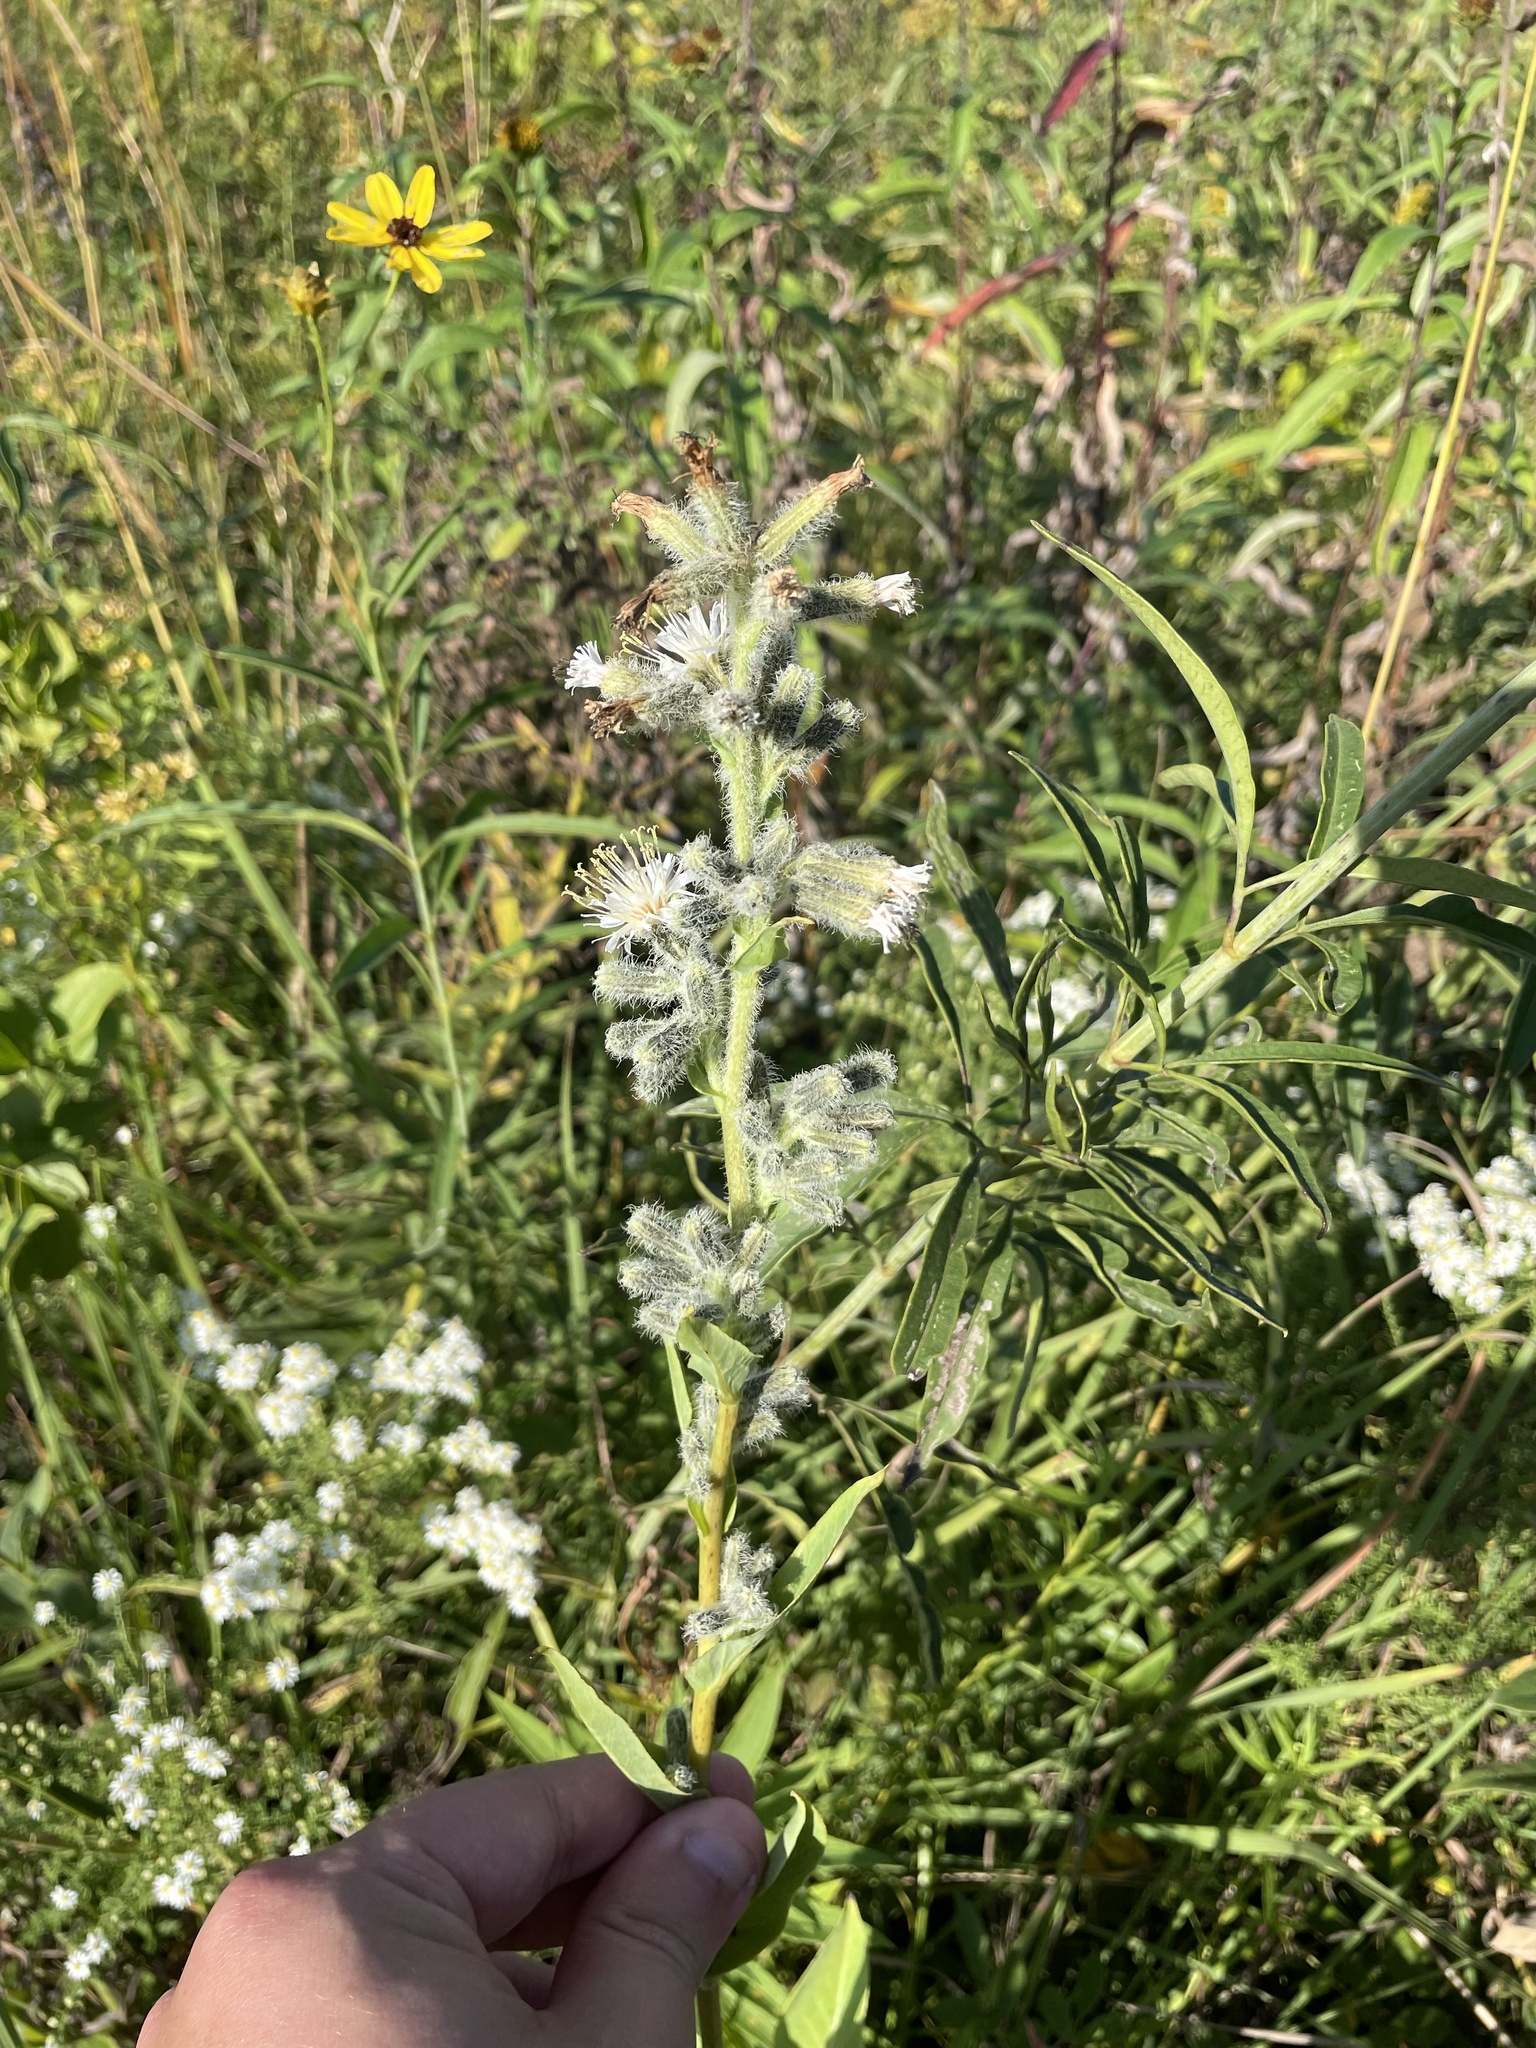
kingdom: Plantae
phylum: Tracheophyta
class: Magnoliopsida
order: Asterales
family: Asteraceae
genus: Nabalus
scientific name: Nabalus racemosus
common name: Glaucous white lettuce
